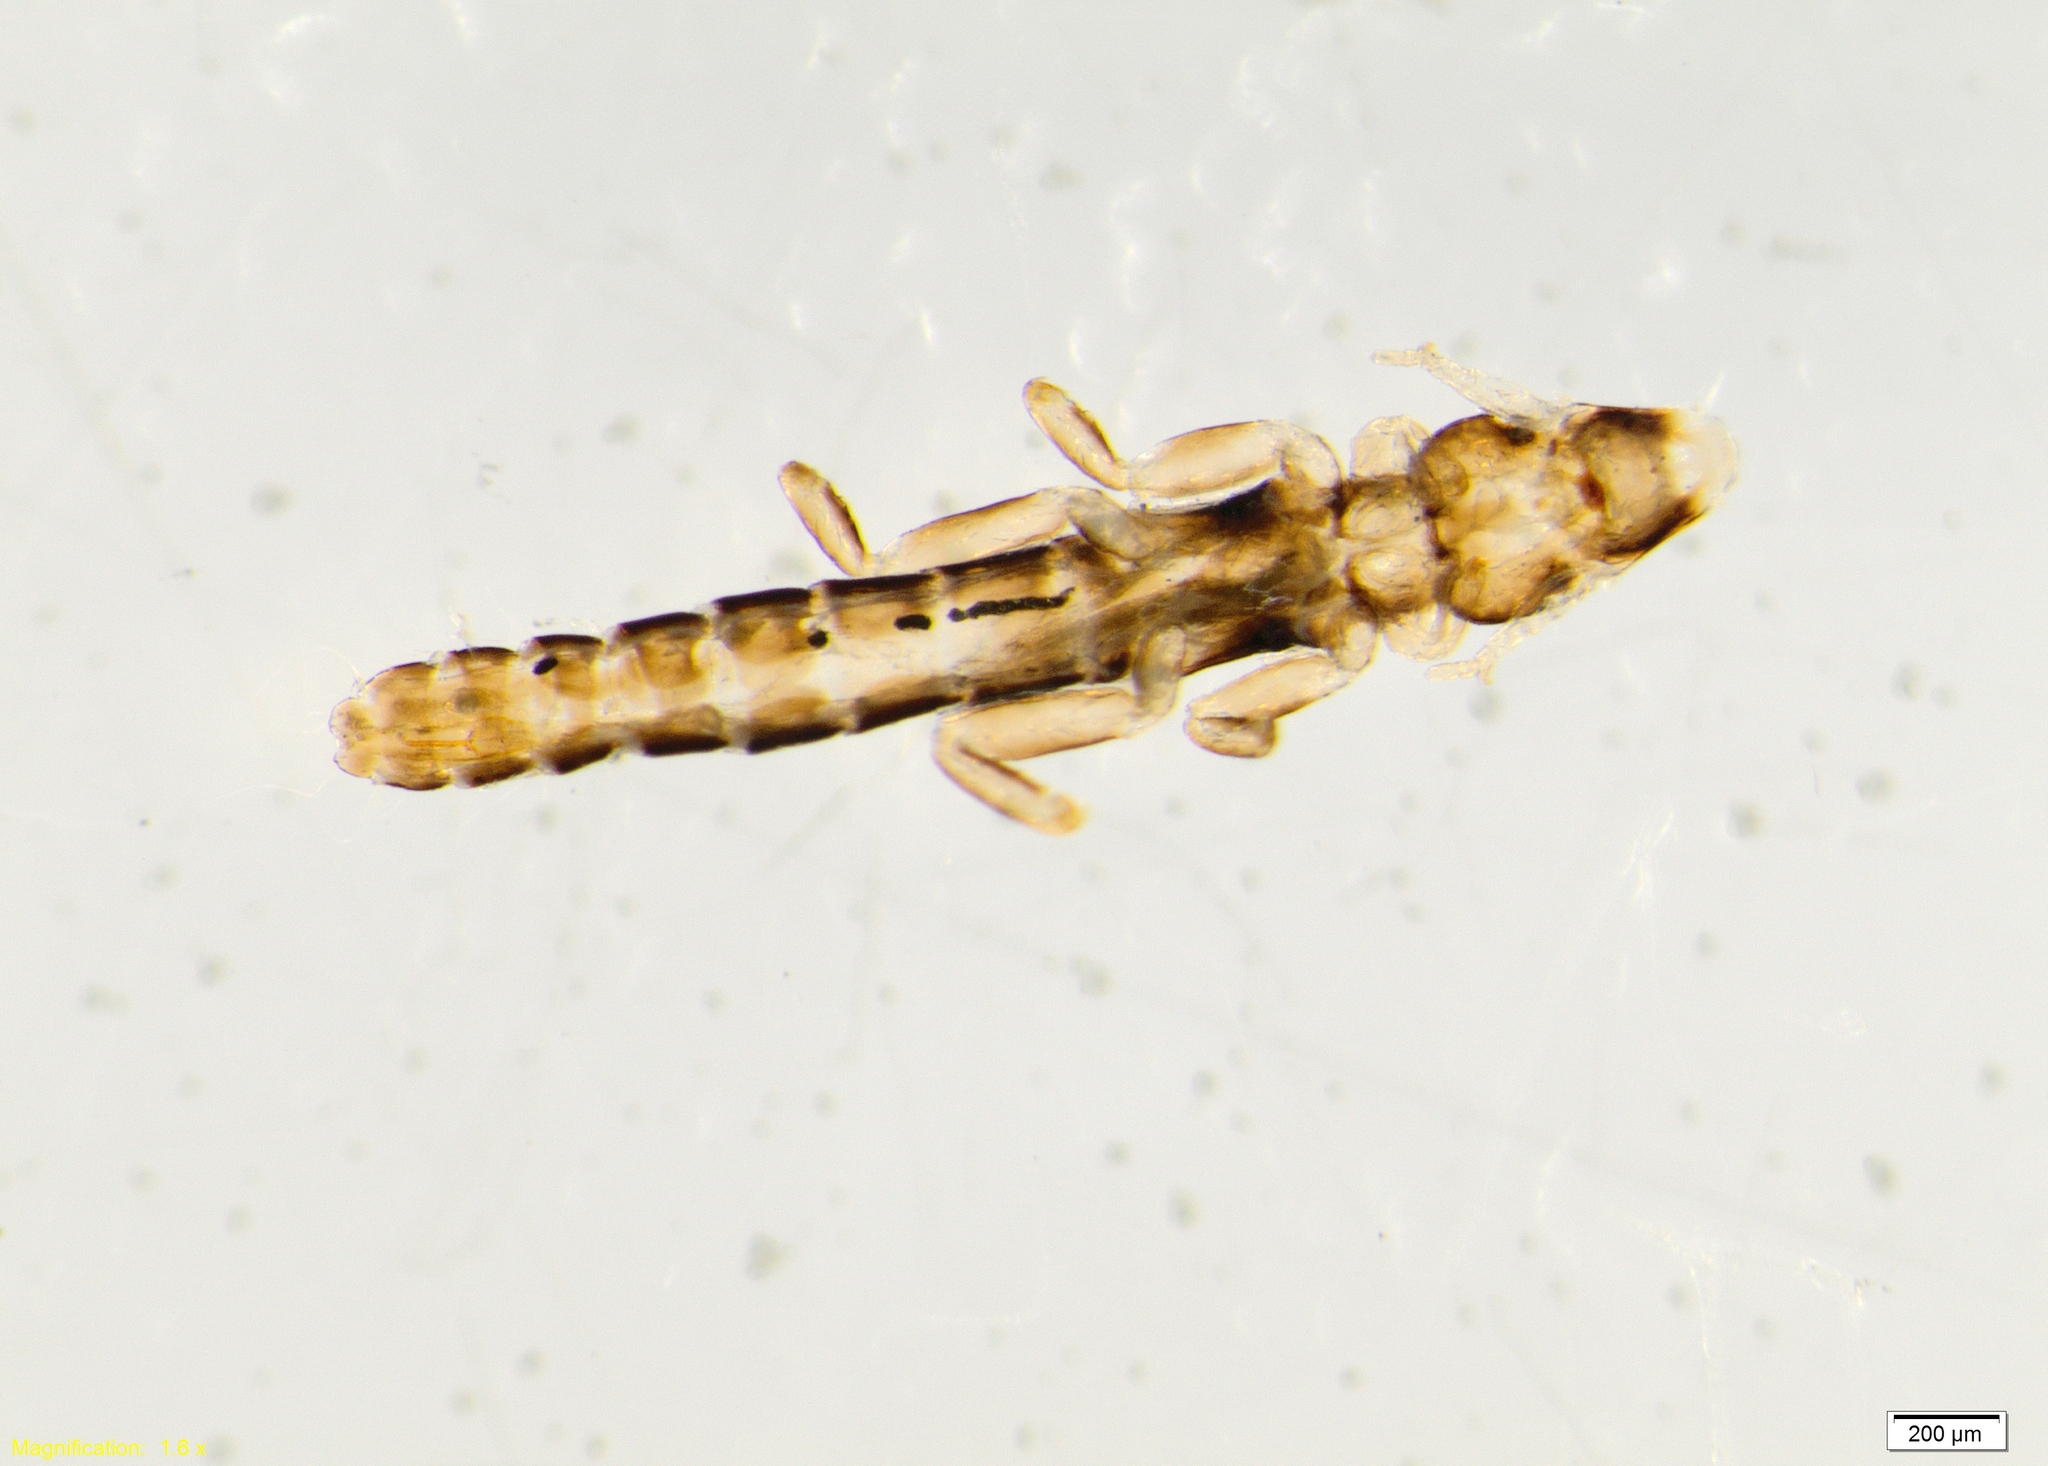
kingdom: Animalia
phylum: Arthropoda
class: Insecta
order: Psocodea
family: Philopteridae
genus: Anaticola
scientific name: Anaticola crassicorne
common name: Louse
